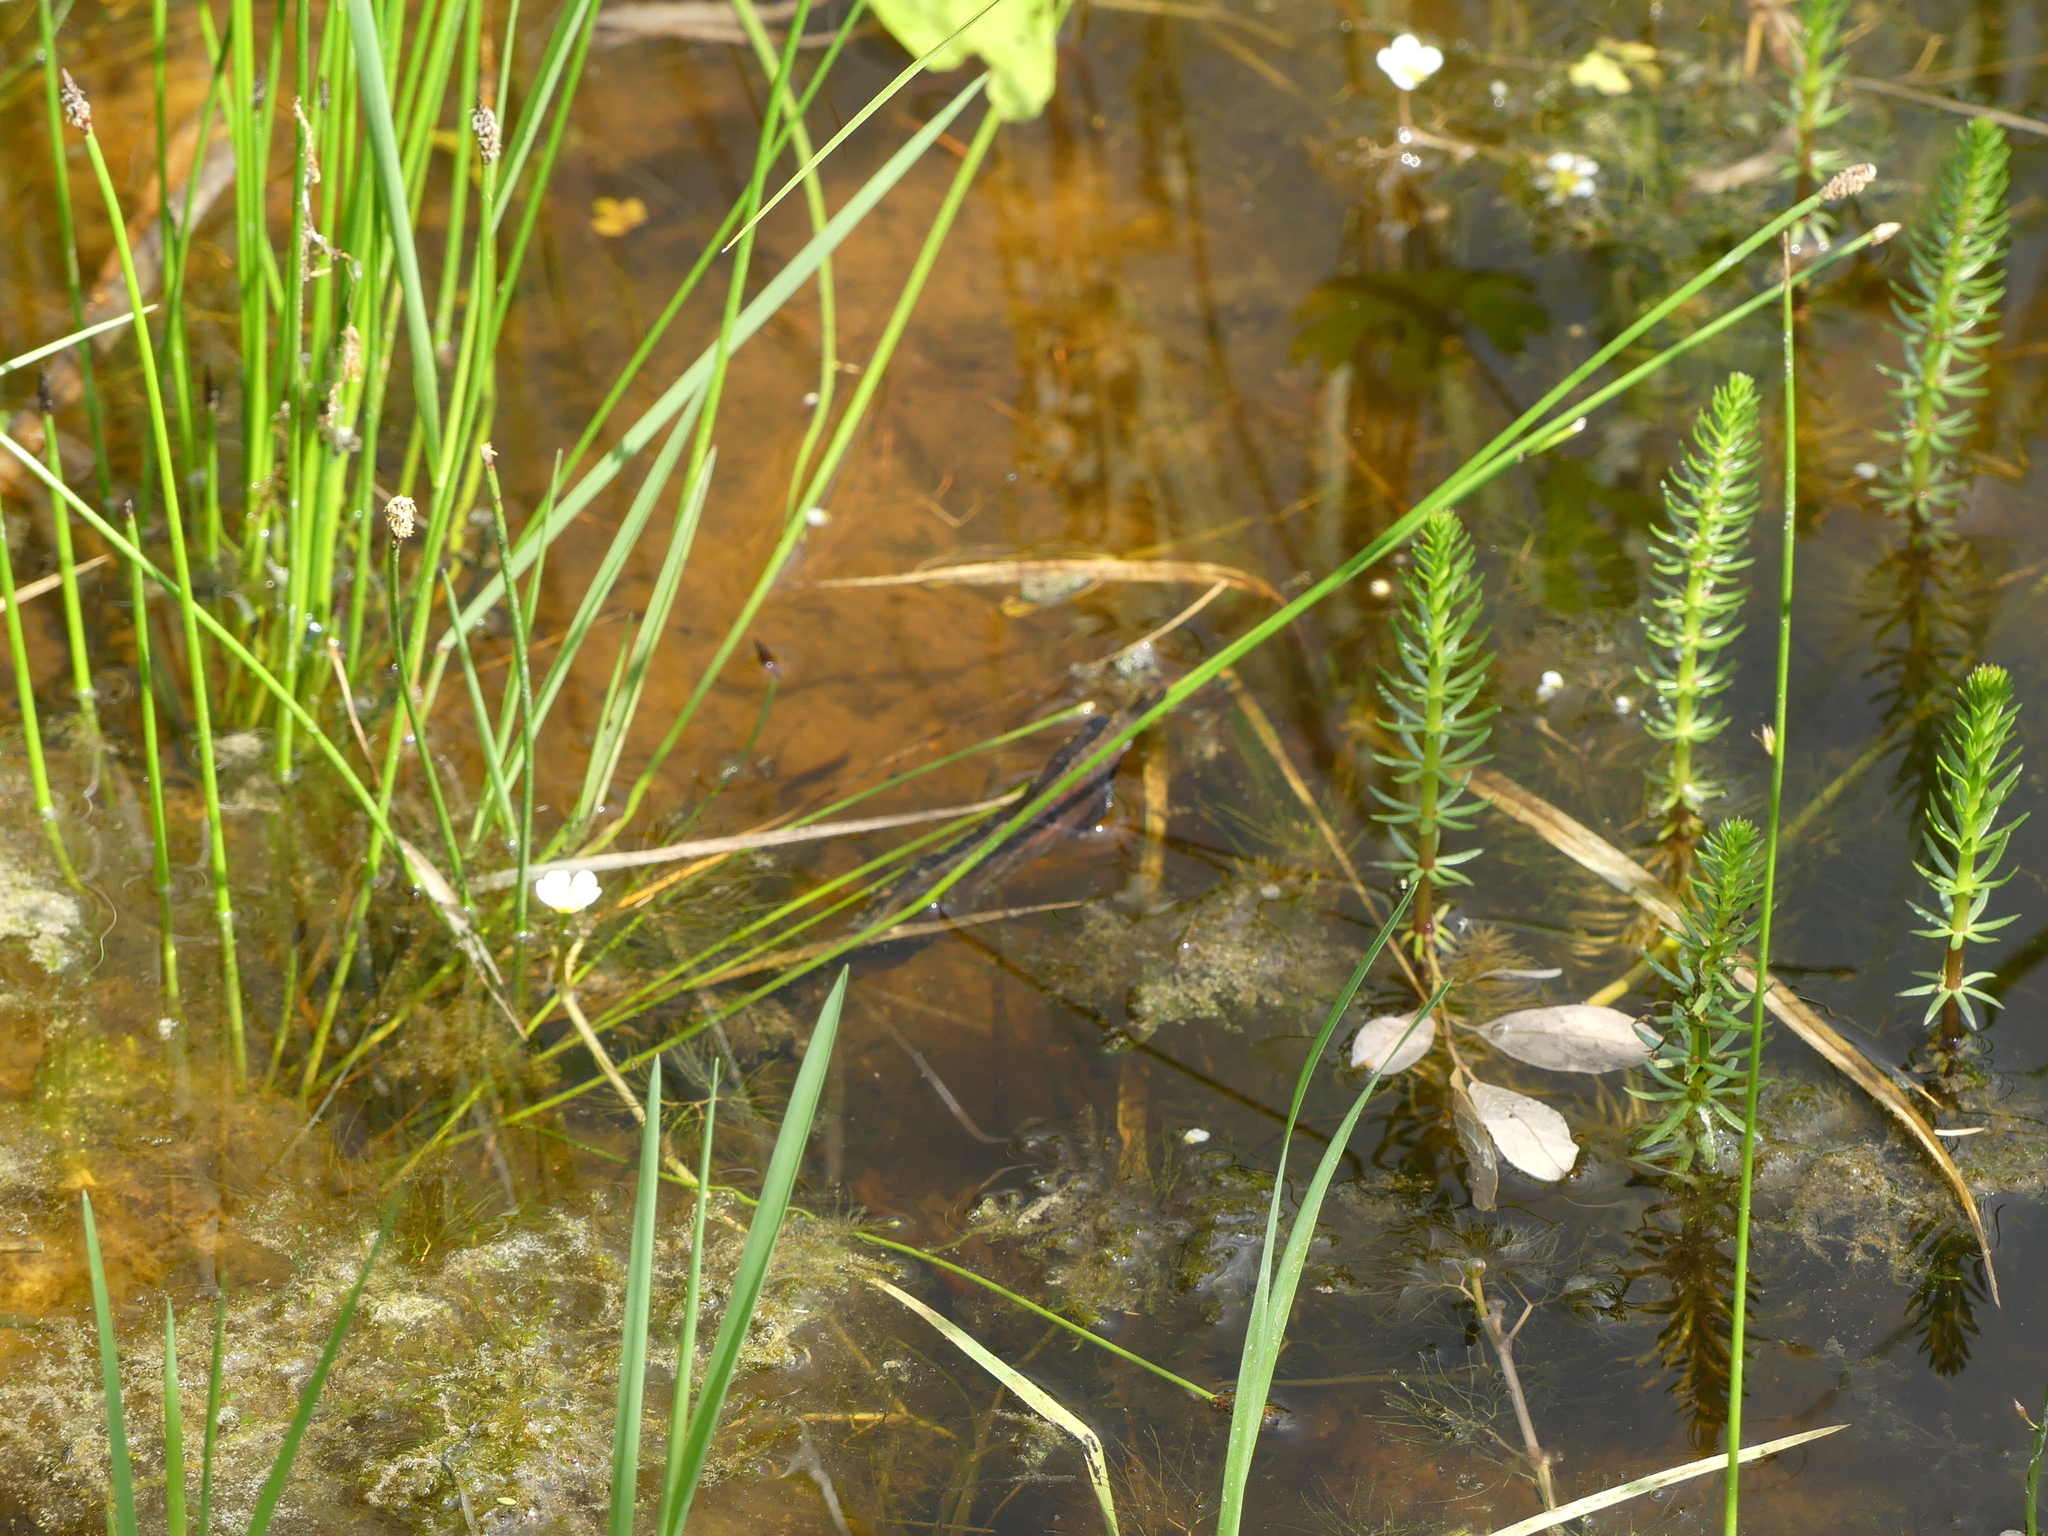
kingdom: Plantae
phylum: Tracheophyta
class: Magnoliopsida
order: Lamiales
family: Plantaginaceae
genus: Hippuris
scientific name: Hippuris vulgaris
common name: Mare's-tail
